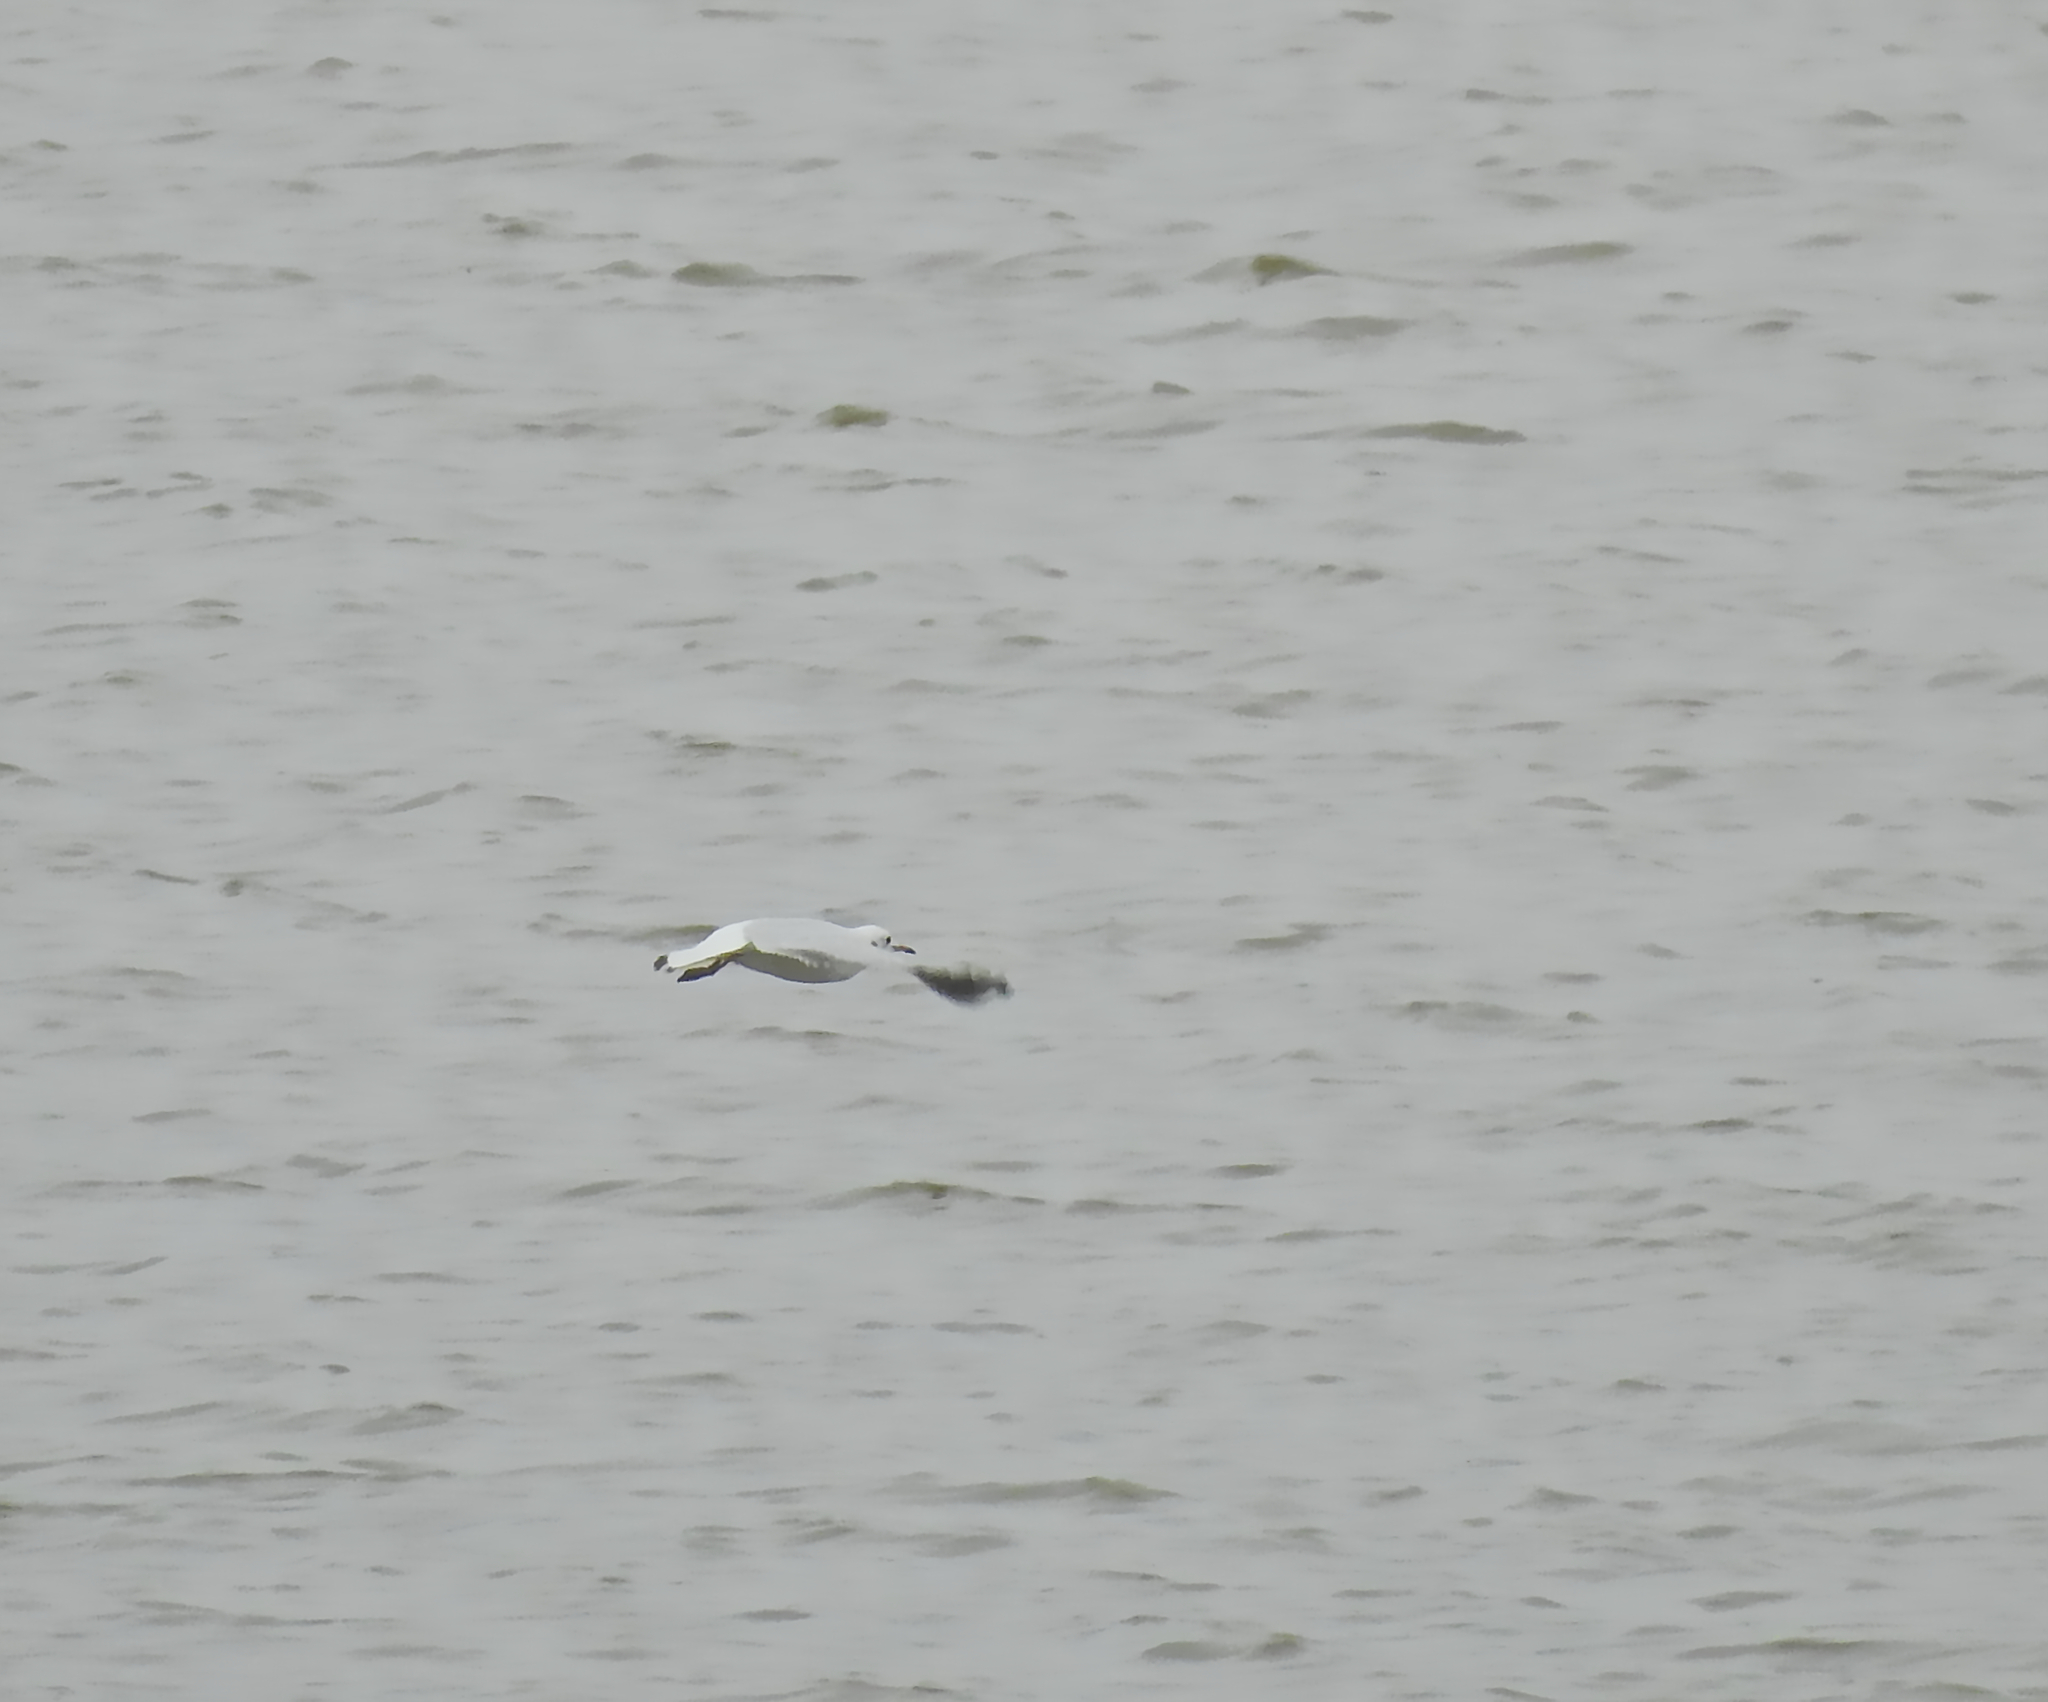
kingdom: Animalia
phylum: Chordata
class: Aves
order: Charadriiformes
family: Laridae
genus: Chroicocephalus
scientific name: Chroicocephalus ridibundus
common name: Black-headed gull
